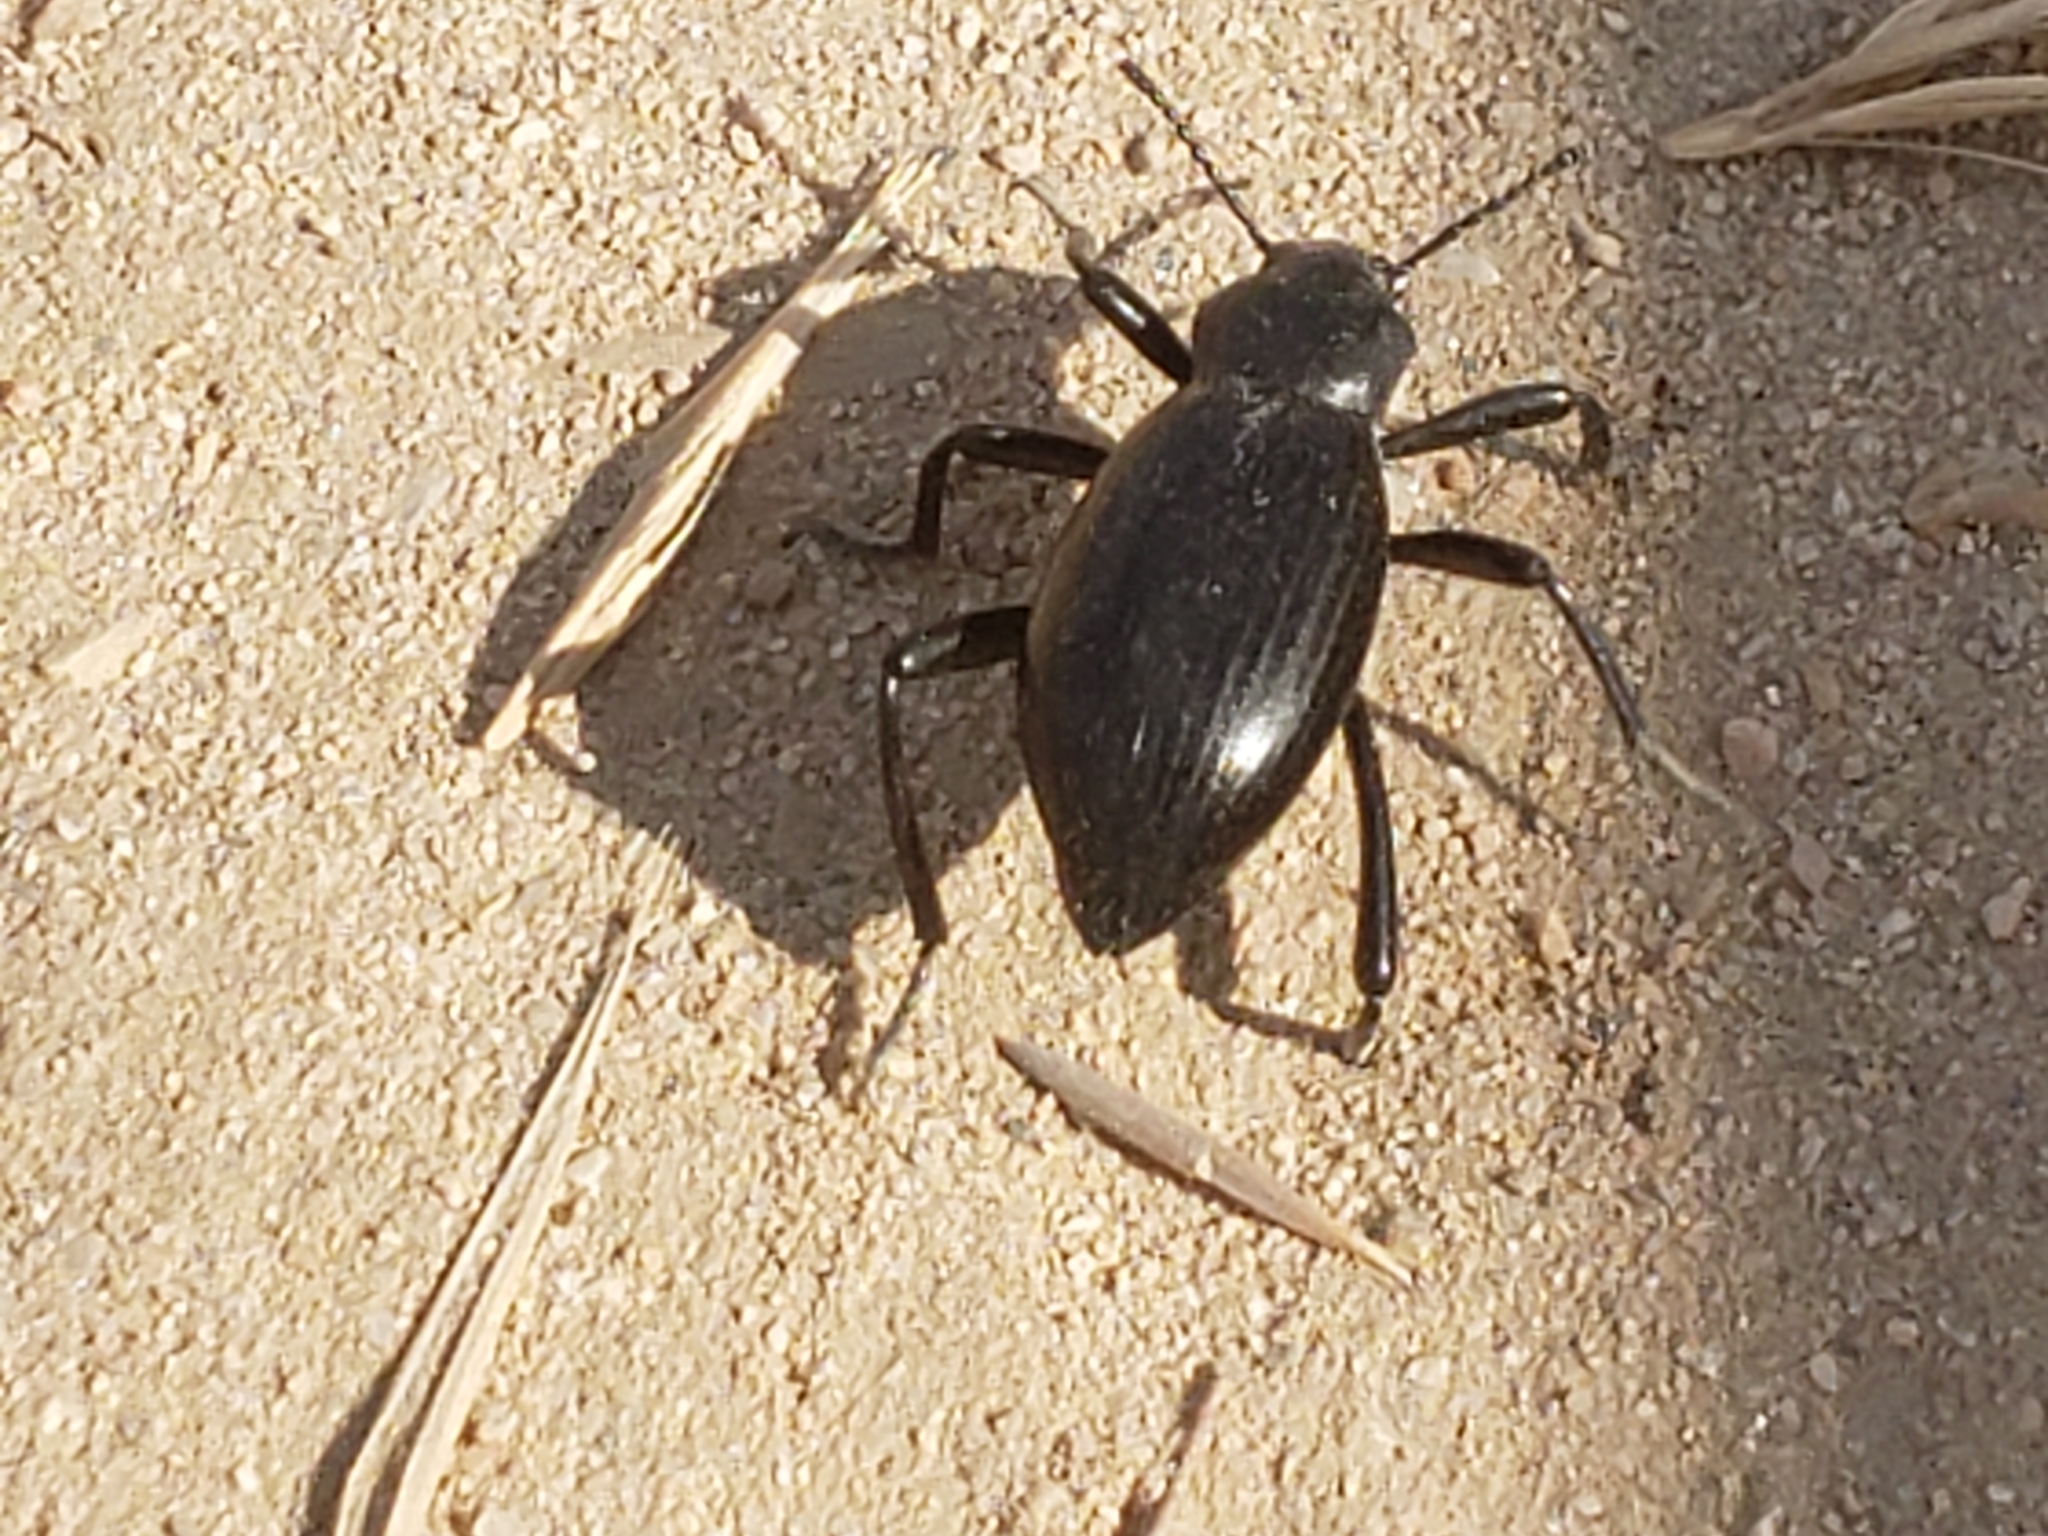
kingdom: Animalia
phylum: Arthropoda
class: Insecta
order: Coleoptera
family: Tenebrionidae
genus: Eleodes
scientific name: Eleodes gracilis
